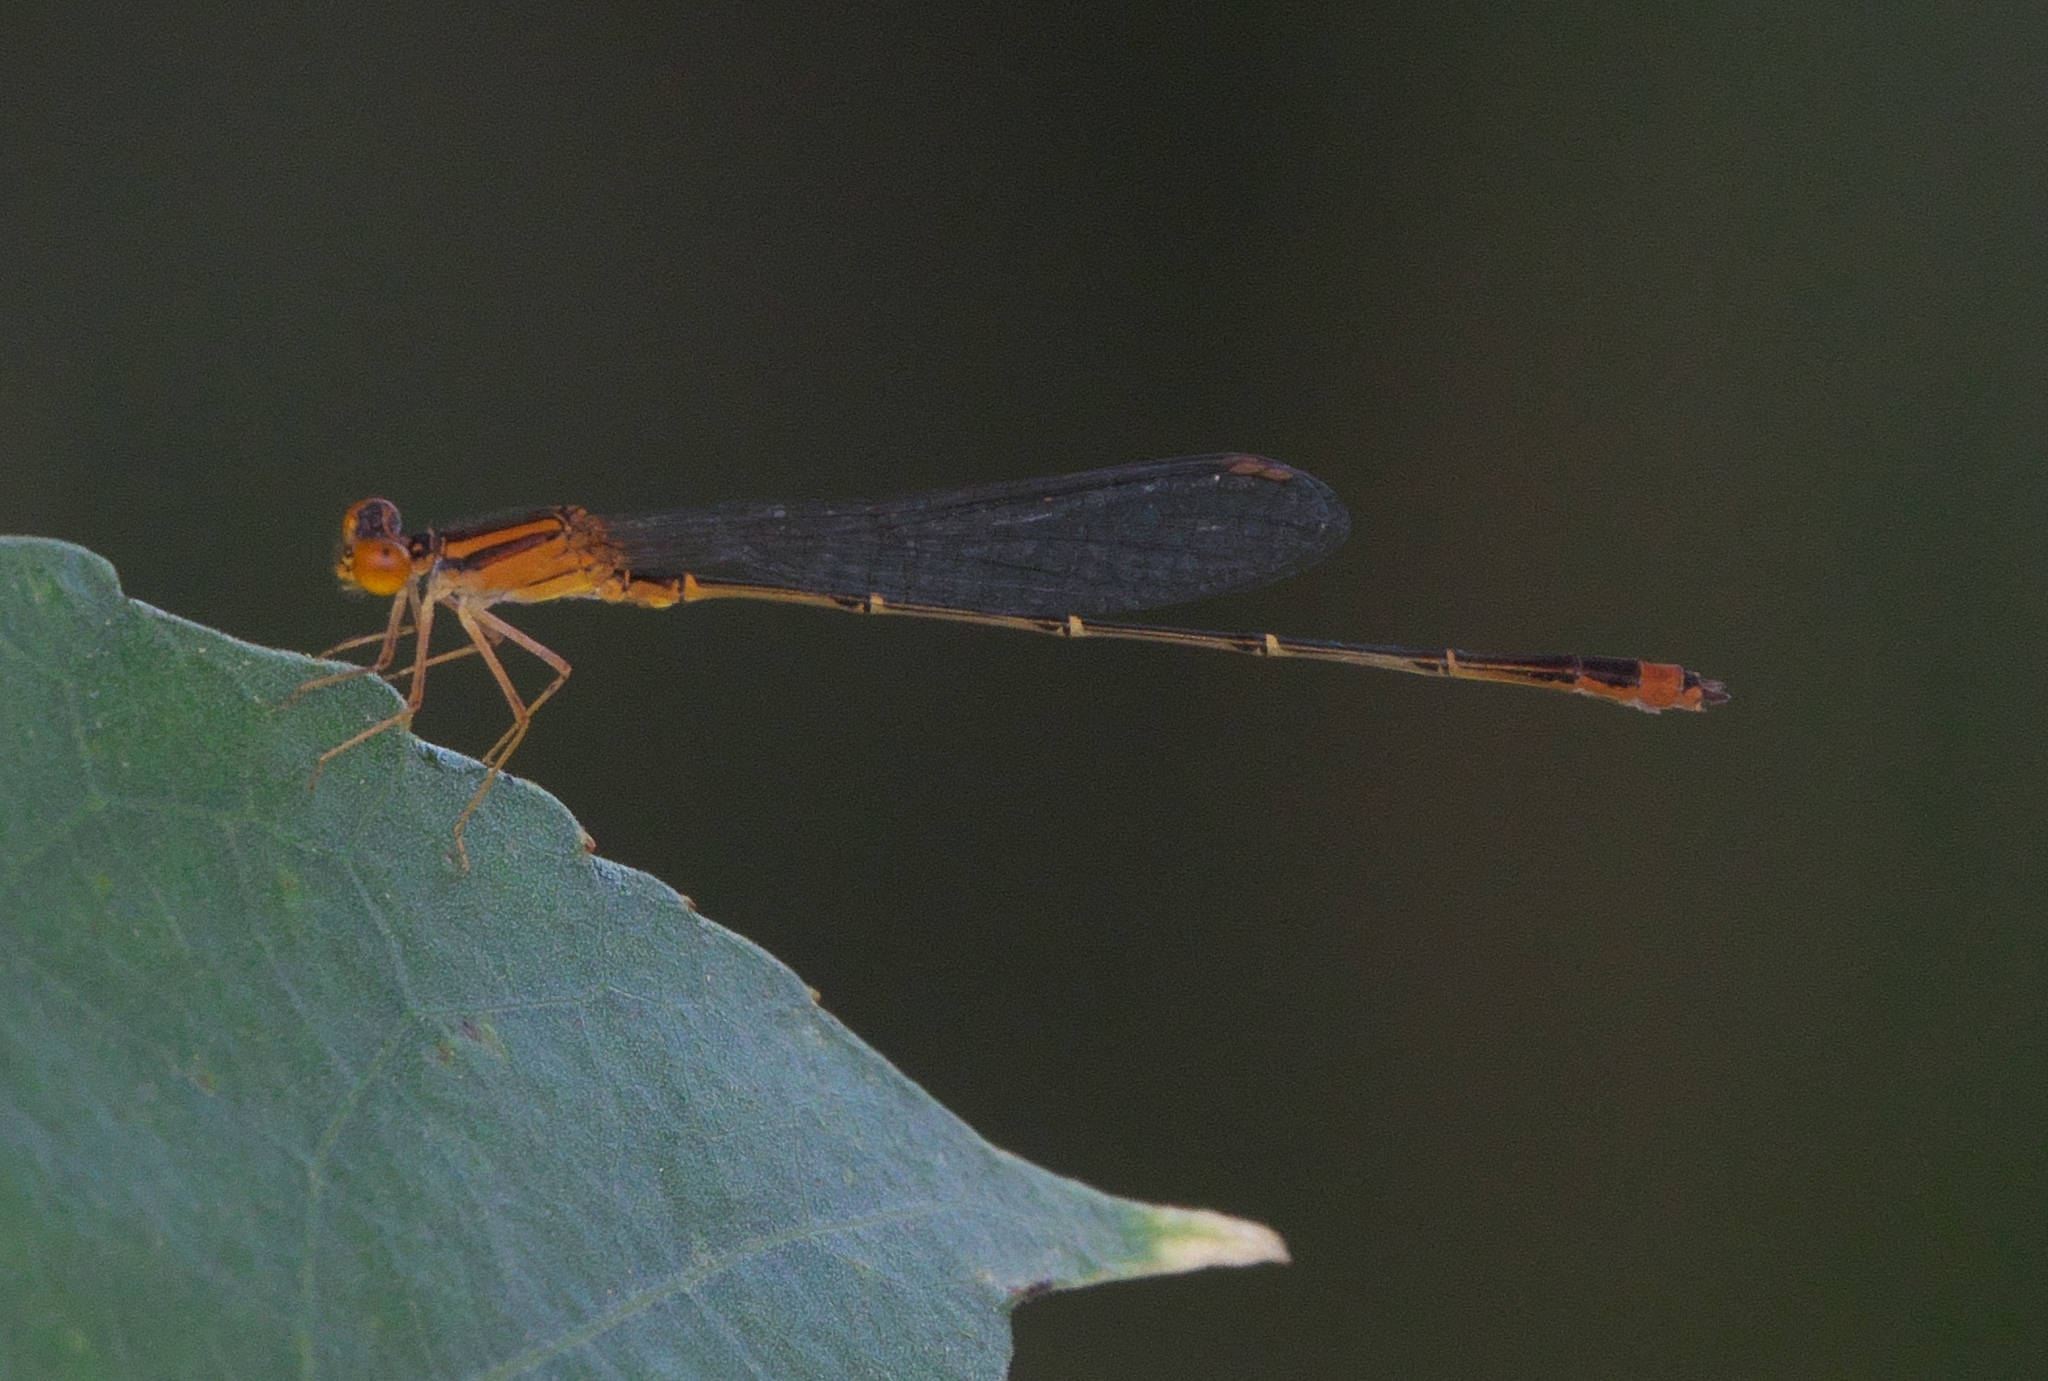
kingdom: Animalia
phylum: Arthropoda
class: Insecta
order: Odonata
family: Coenagrionidae
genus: Enallagma
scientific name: Enallagma signatum
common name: Orange bluet
